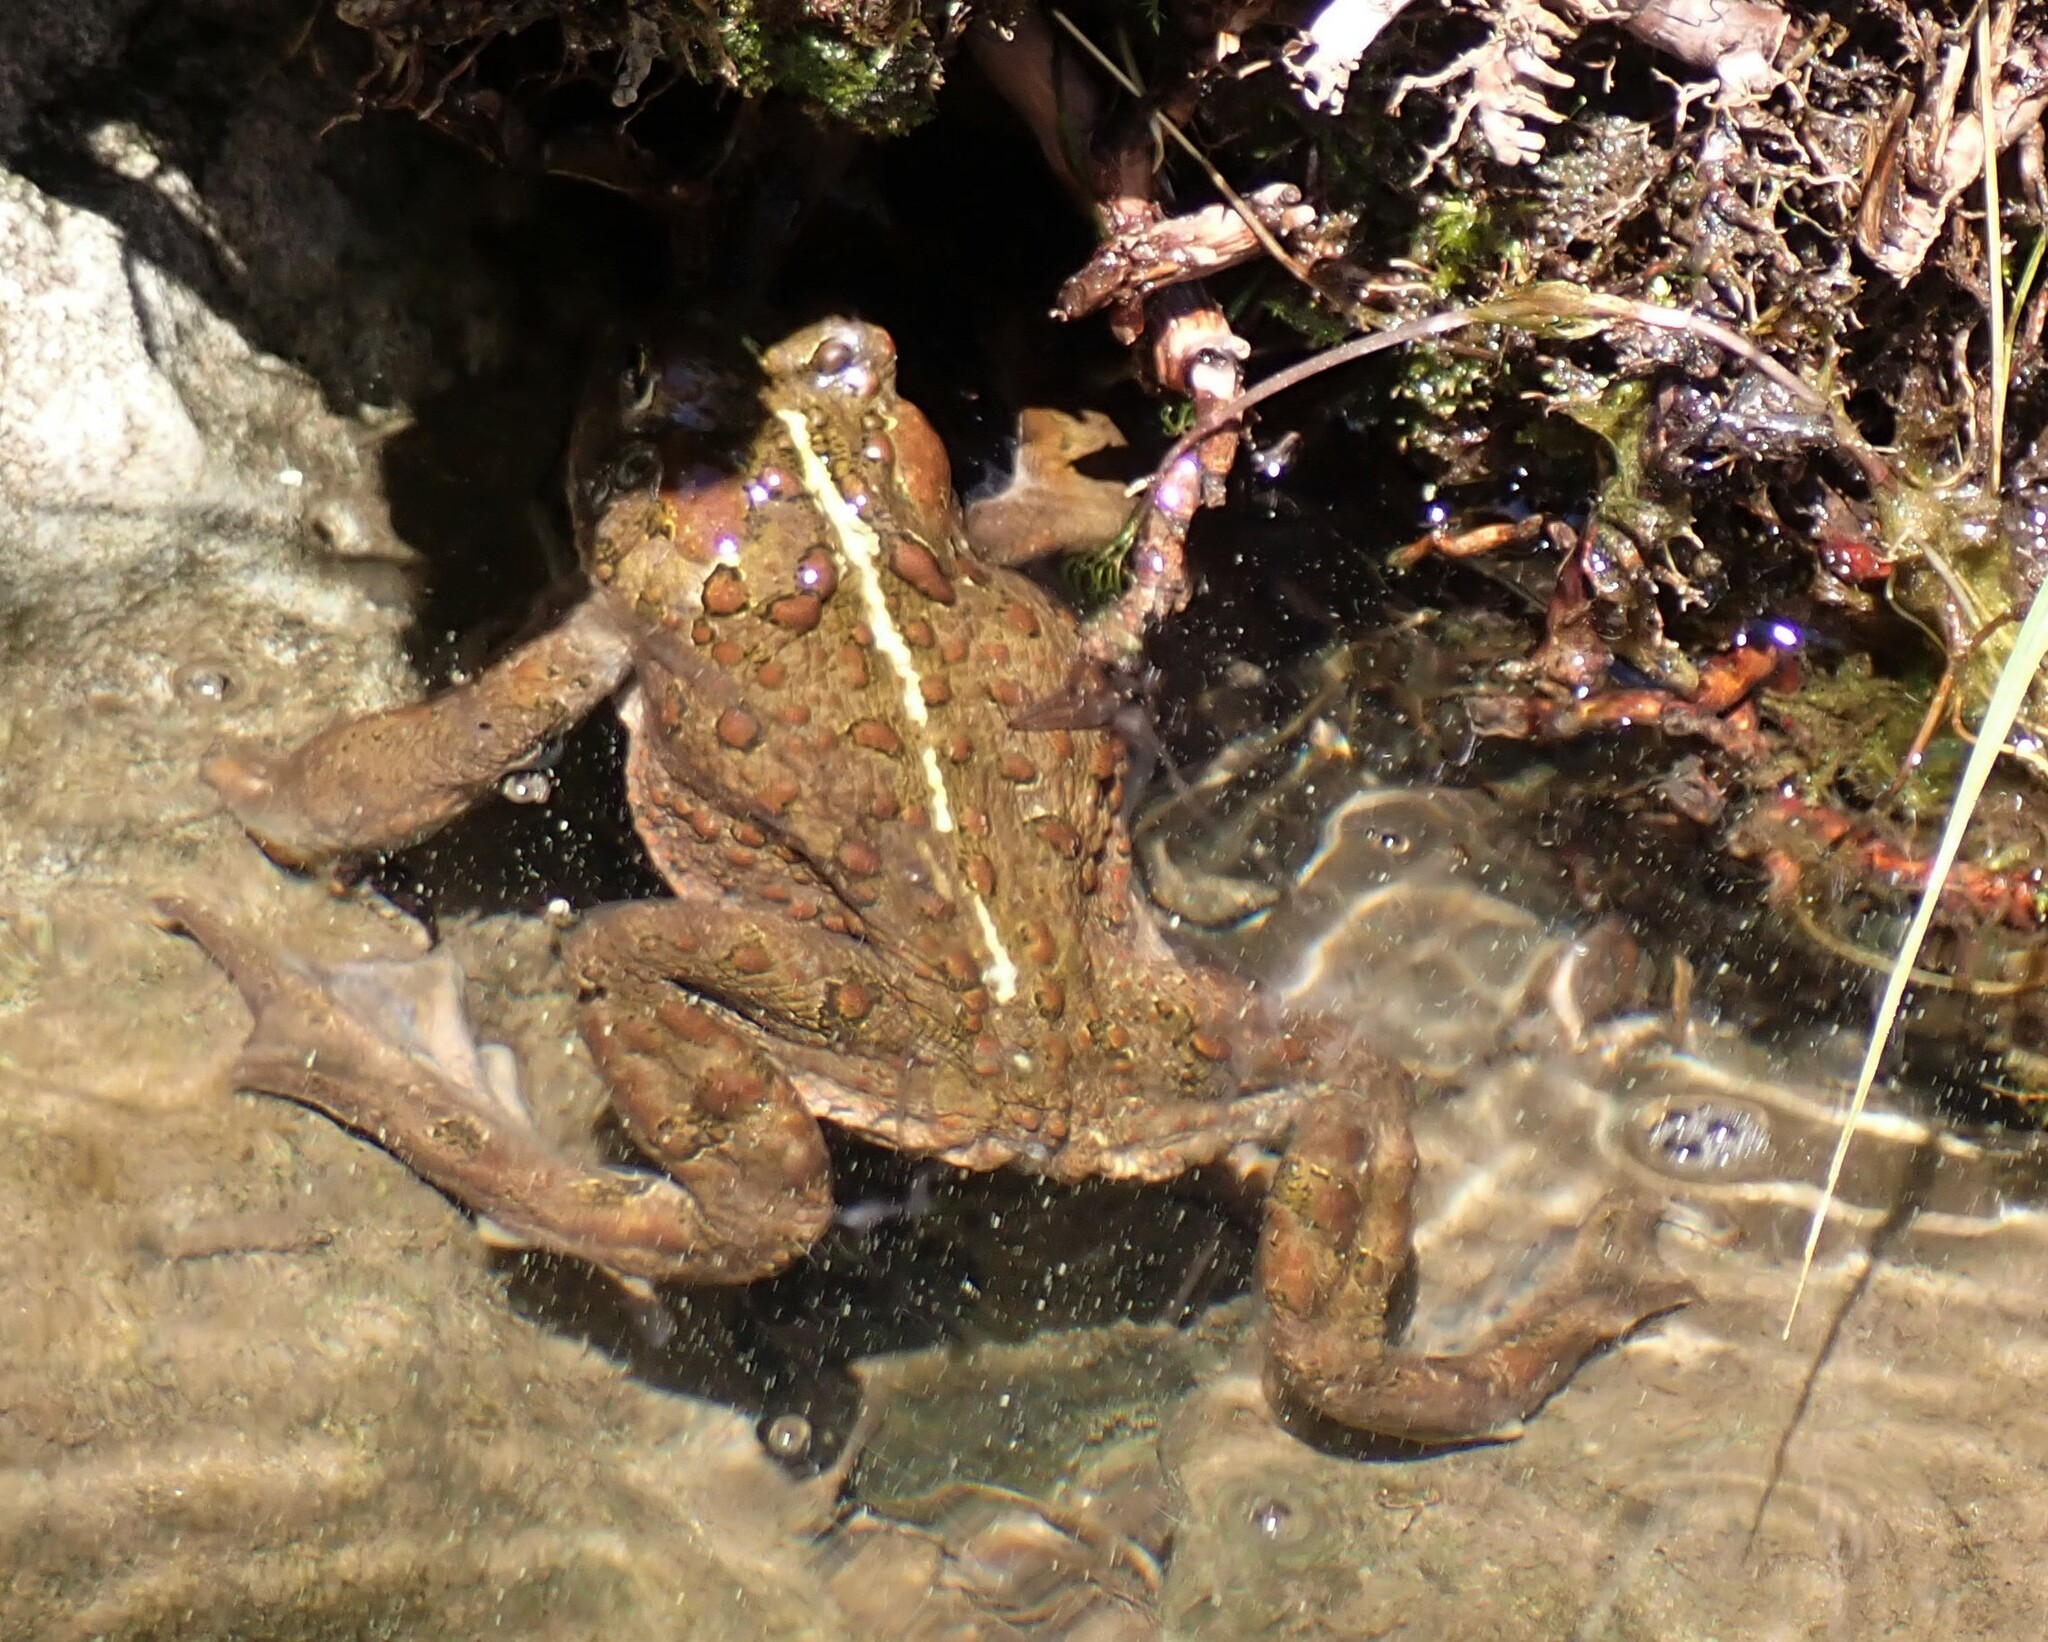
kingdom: Animalia
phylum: Chordata
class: Amphibia
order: Anura
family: Bufonidae
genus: Anaxyrus
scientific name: Anaxyrus boreas
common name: Western toad
